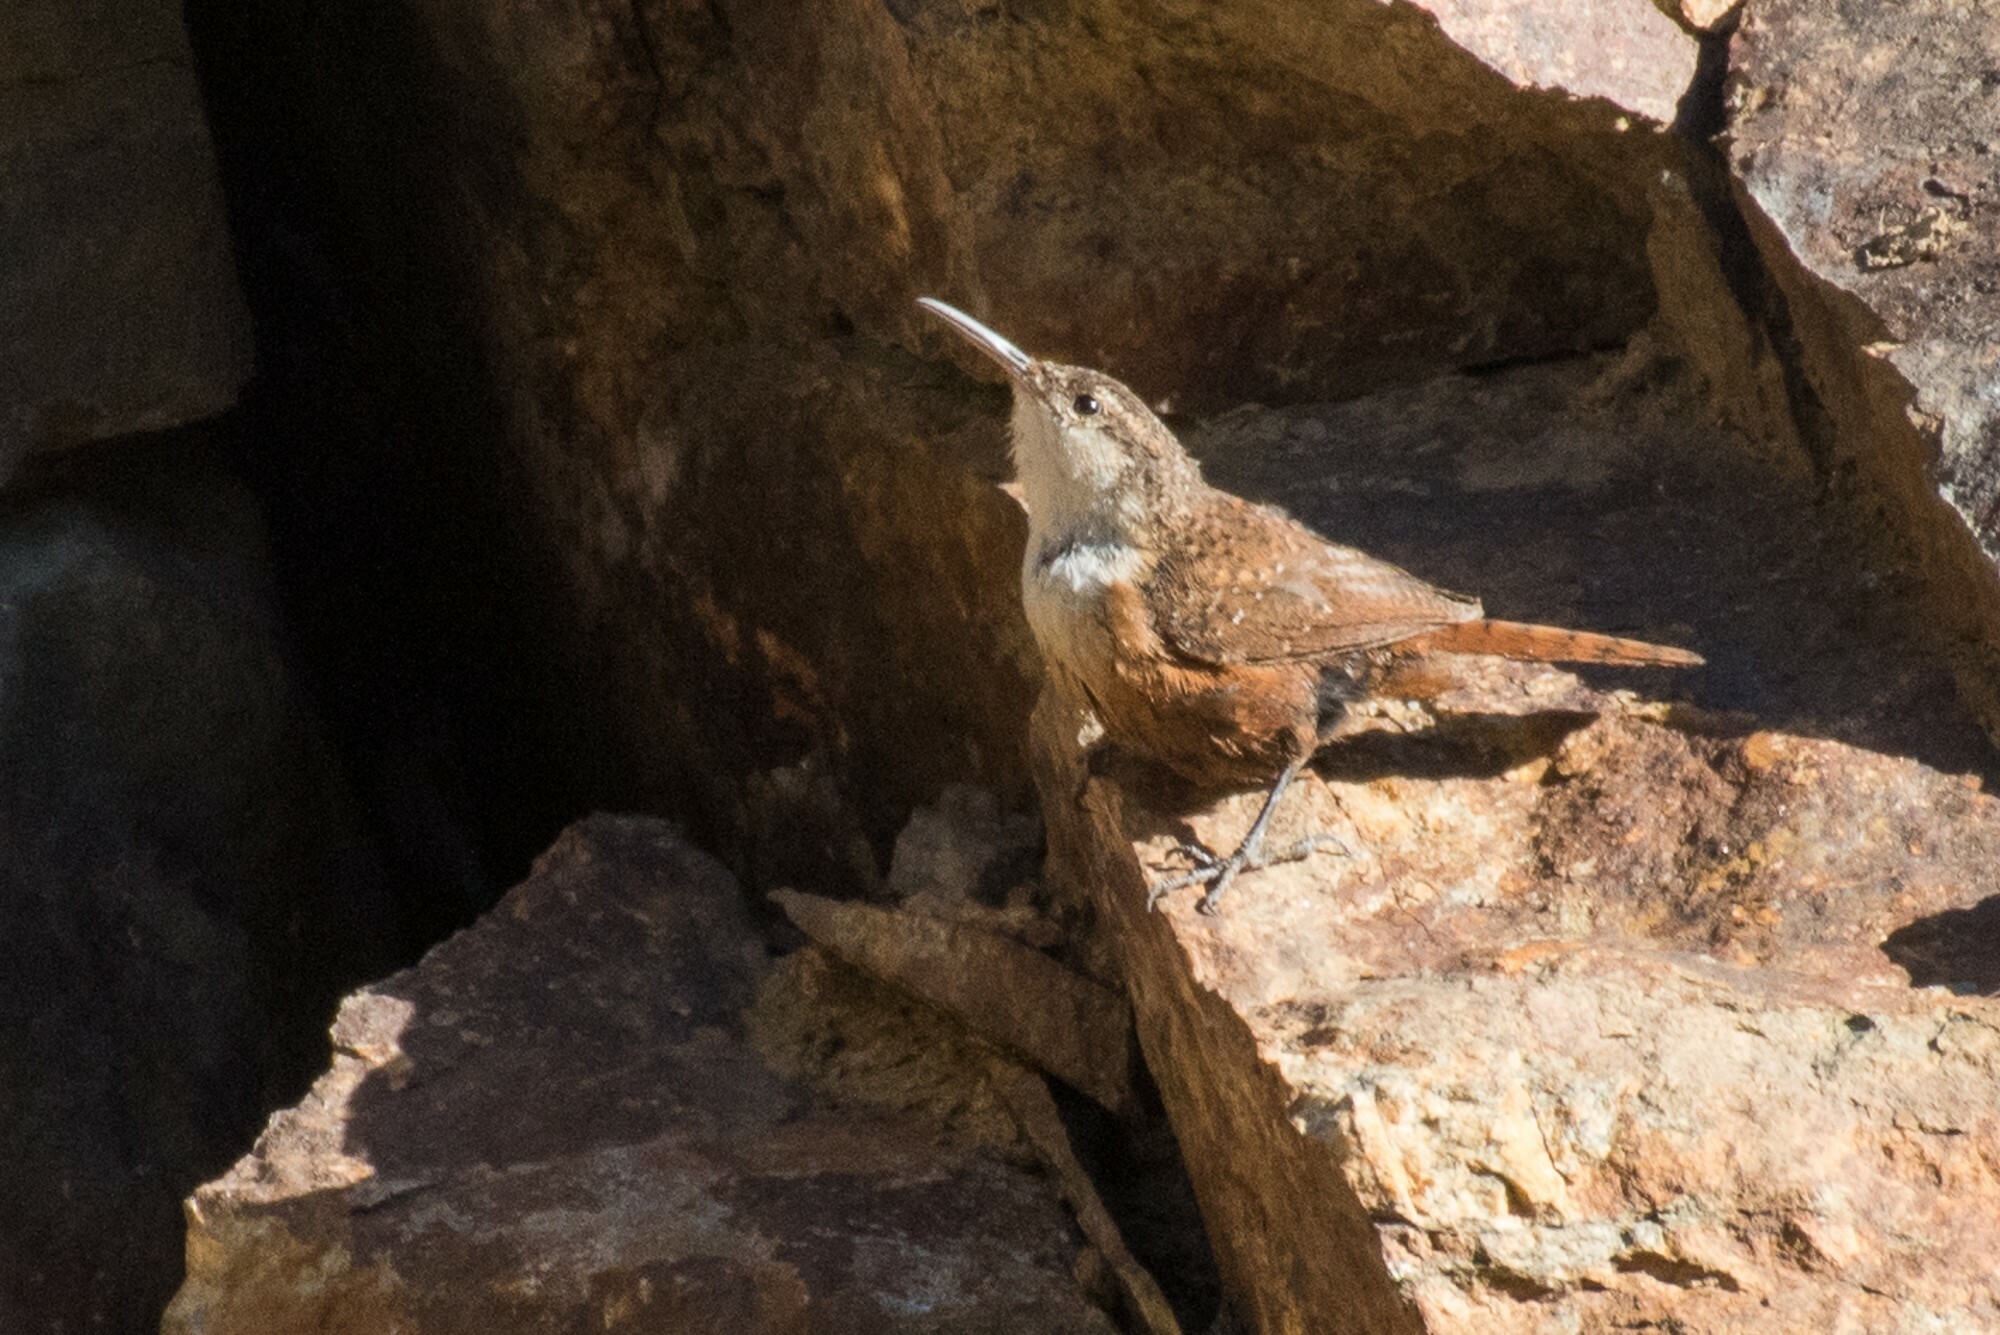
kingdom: Animalia
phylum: Chordata
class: Aves
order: Passeriformes
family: Troglodytidae
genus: Catherpes
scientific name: Catherpes mexicanus
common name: Canyon wren
